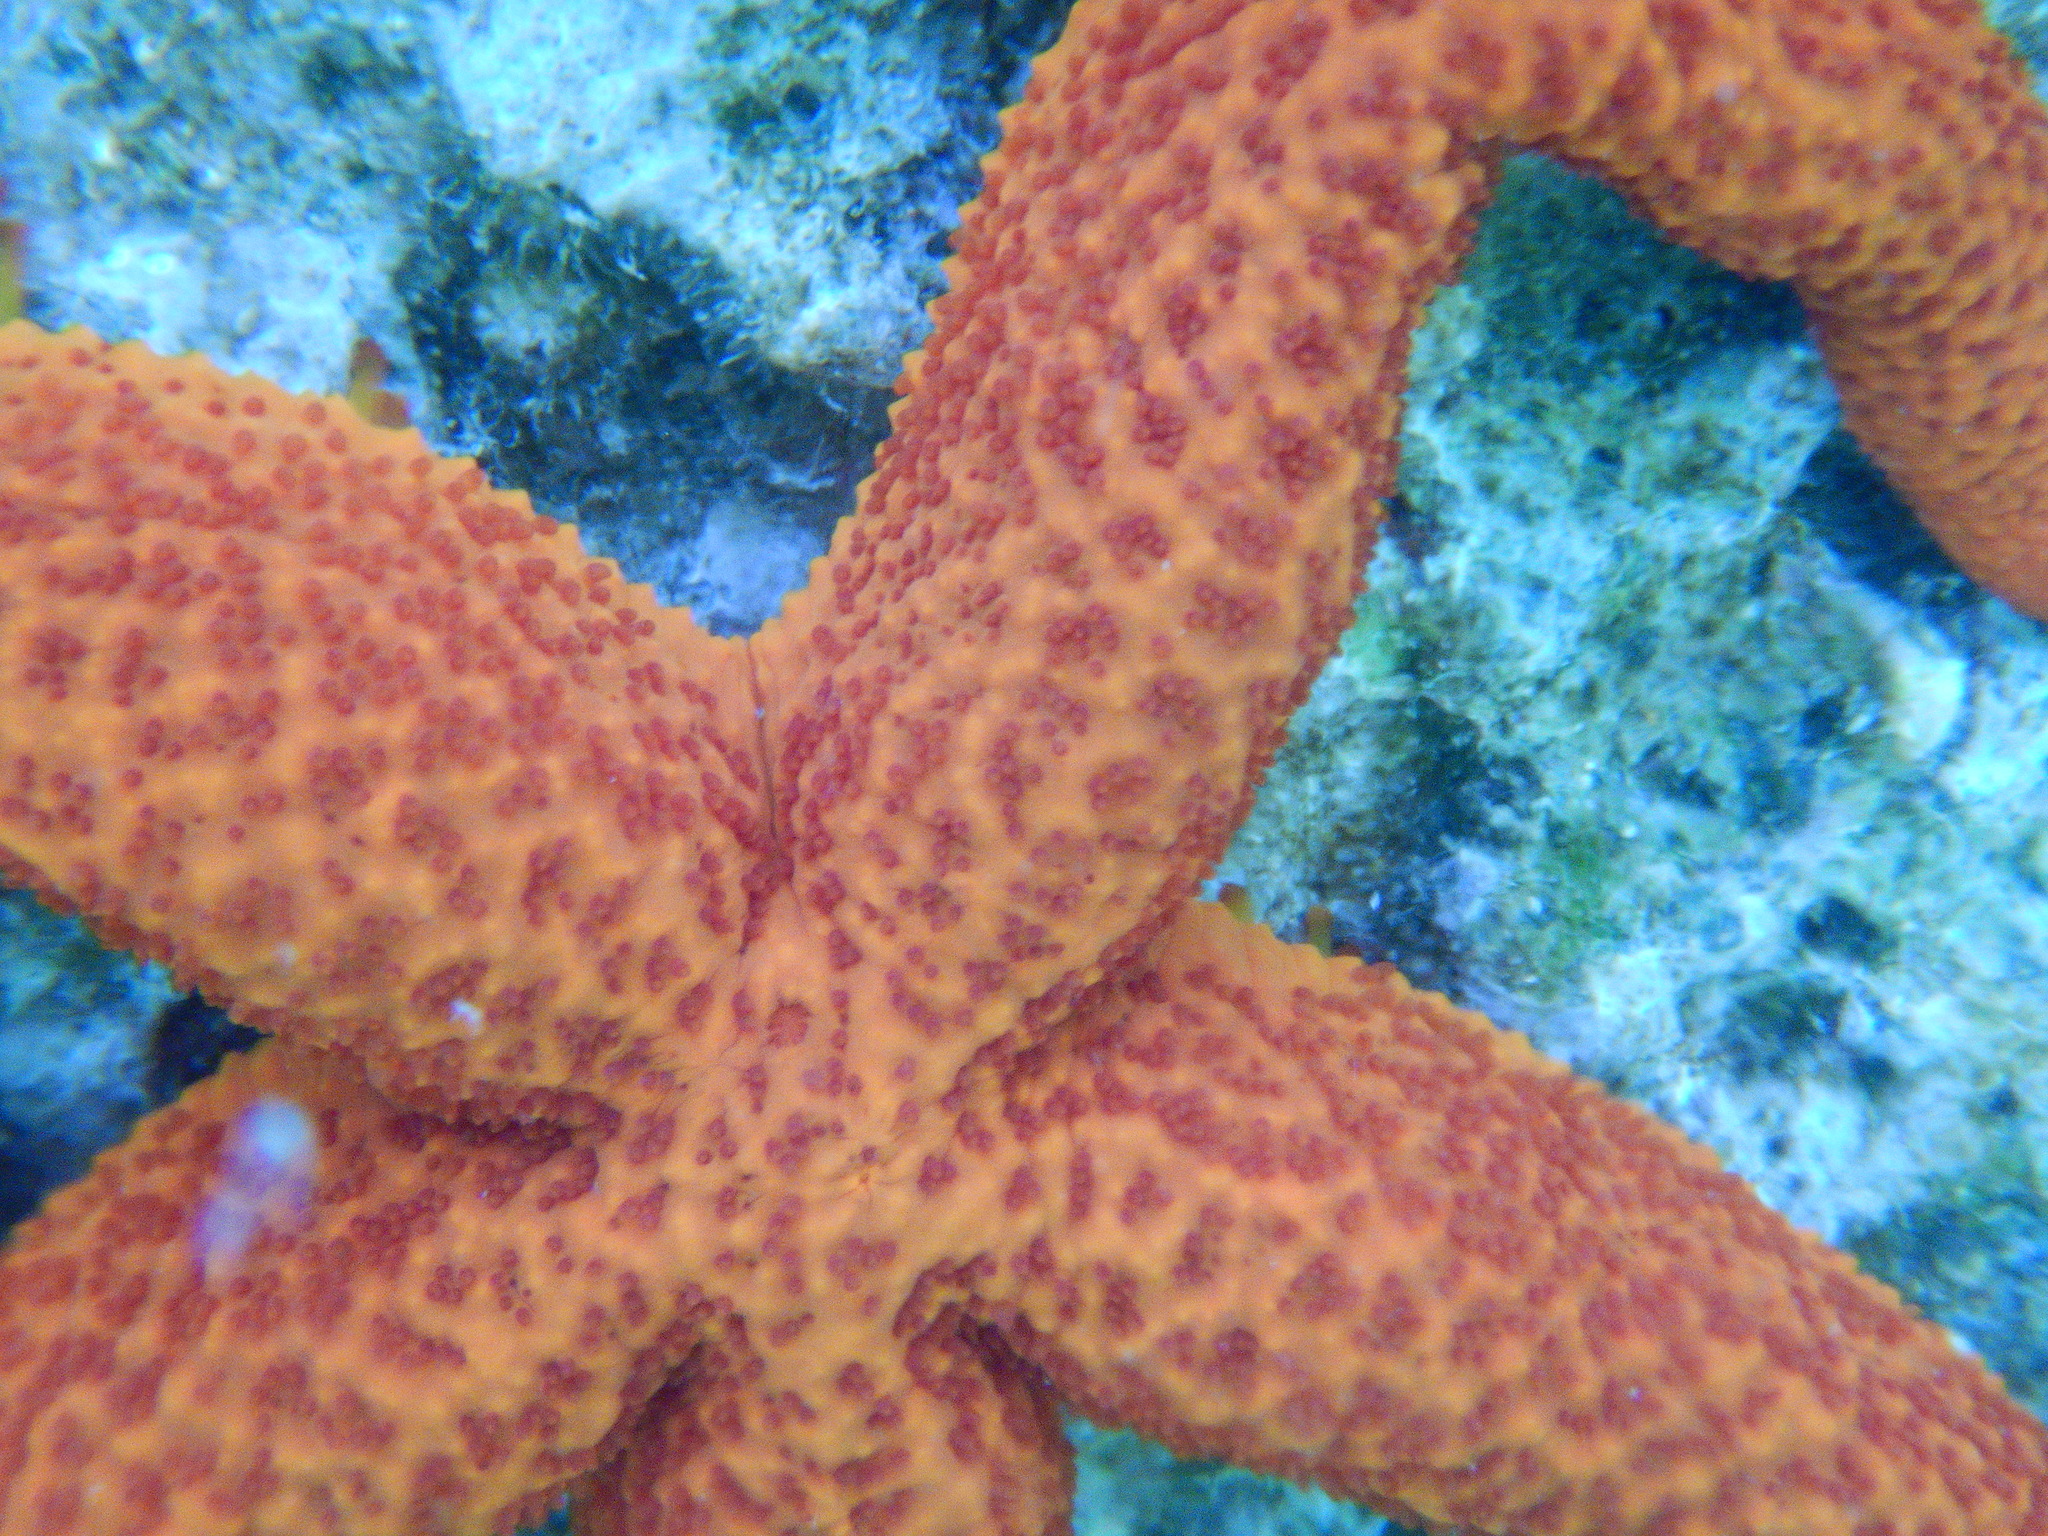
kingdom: Animalia
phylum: Echinodermata
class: Asteroidea
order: Spinulosida
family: Echinasteridae
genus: Echinaster
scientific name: Echinaster sepositus
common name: Red starfish
